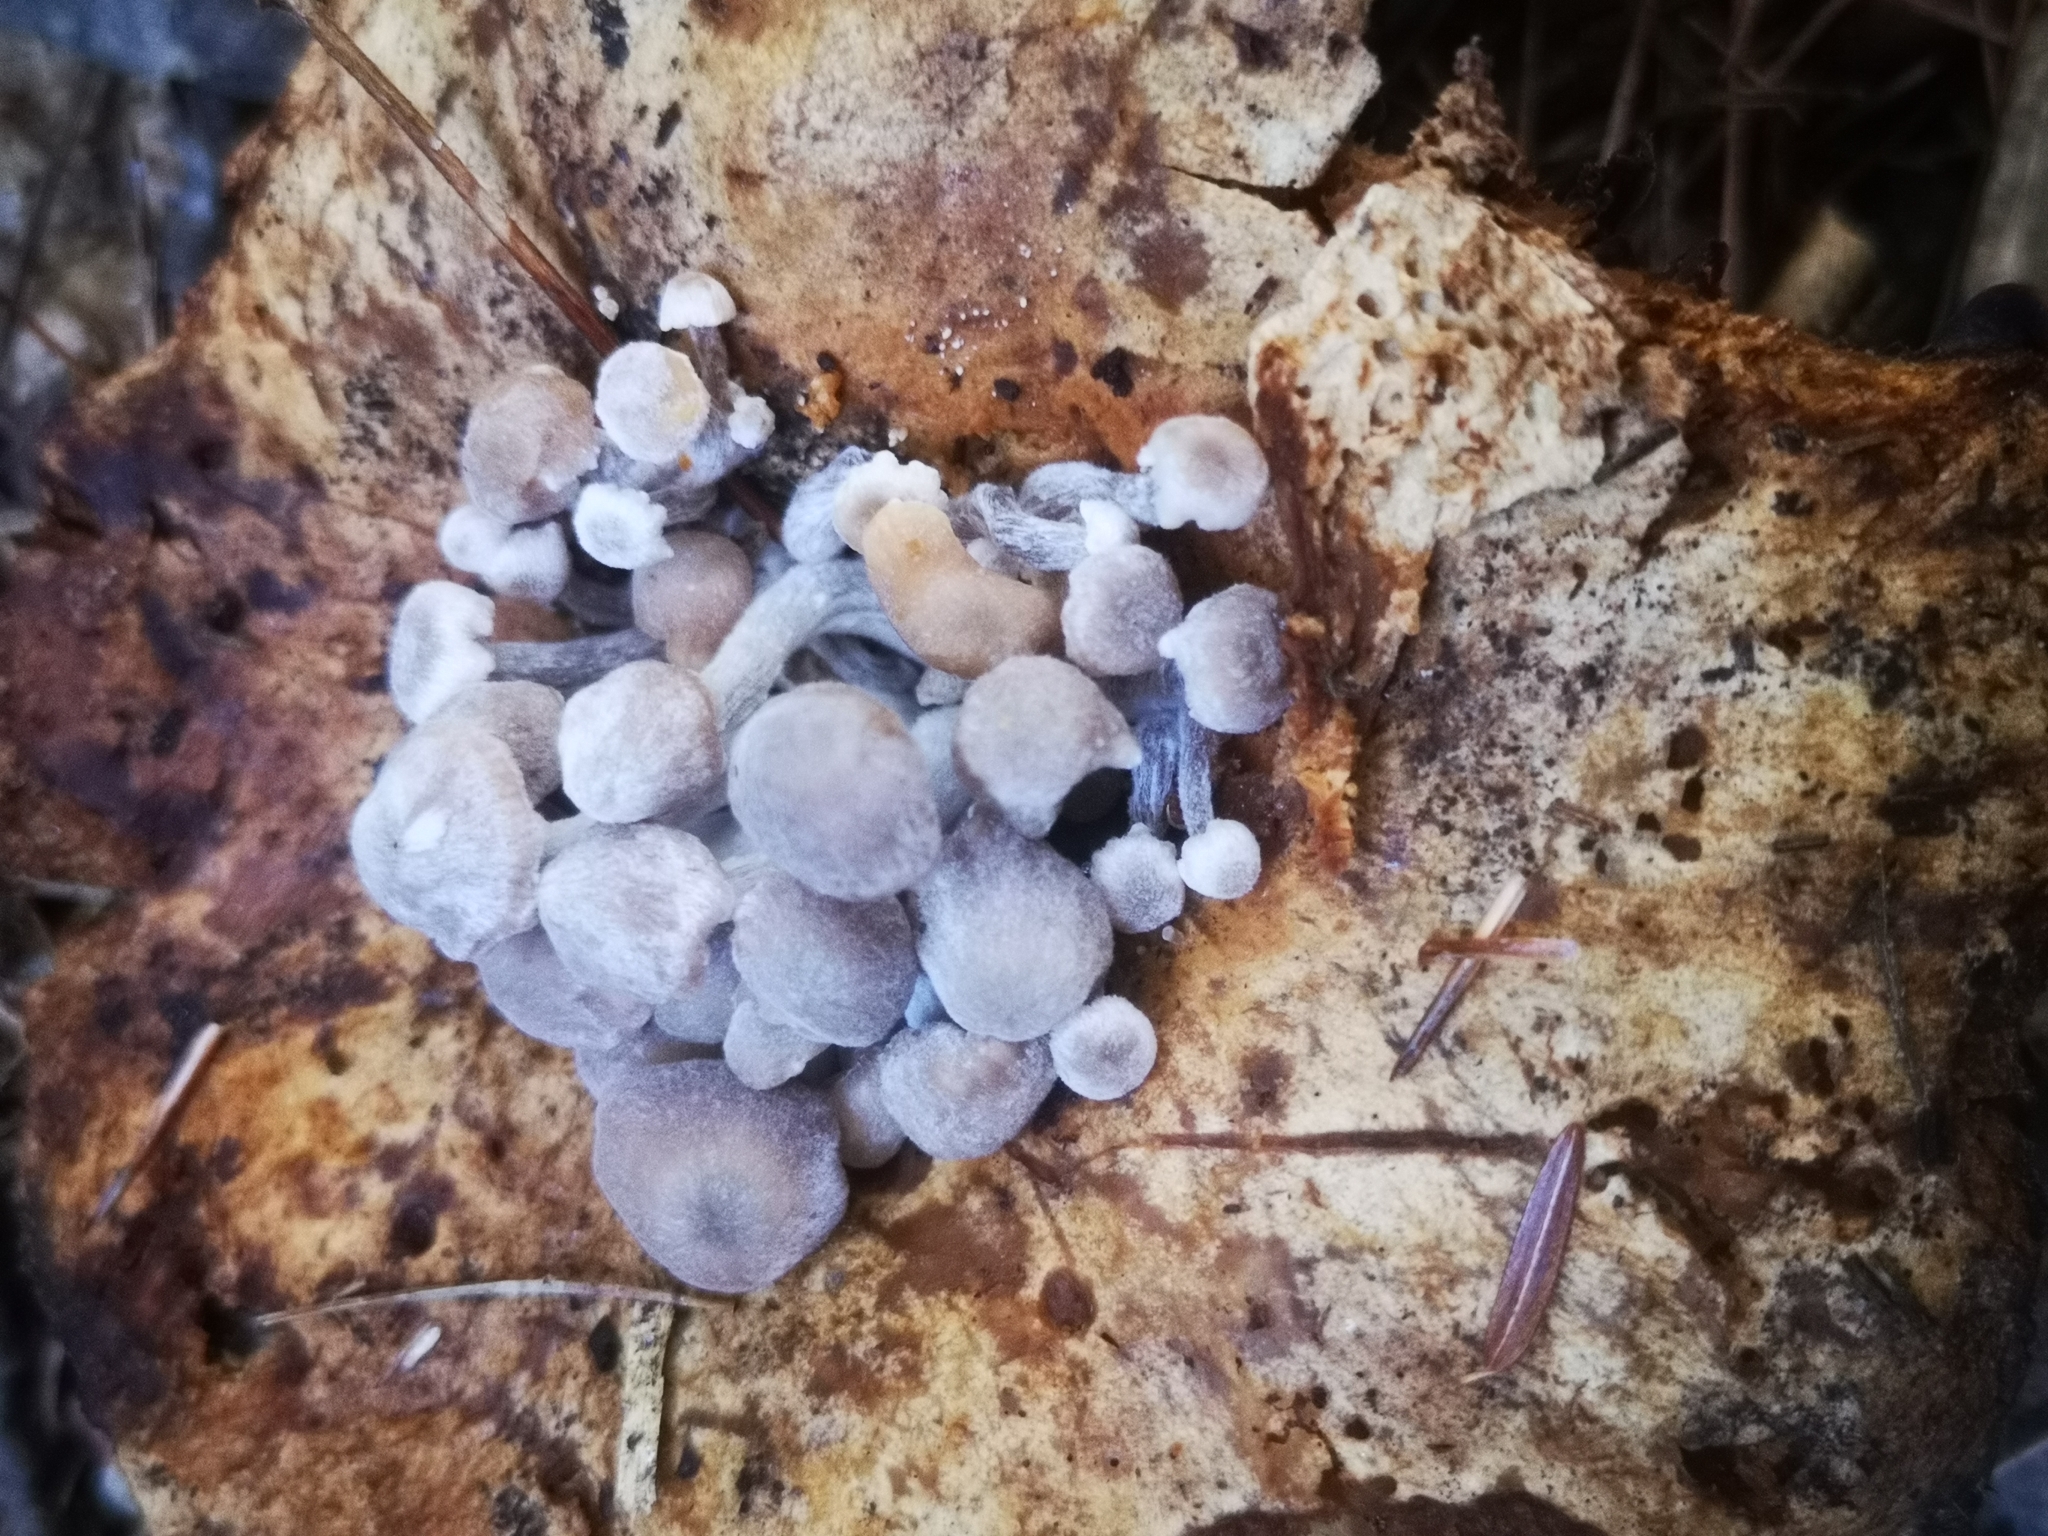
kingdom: Fungi
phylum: Basidiomycota
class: Agaricomycetes
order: Agaricales
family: Lyophyllaceae
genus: Asterophora
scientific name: Asterophora lycoperdoides
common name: Pick-a-back toadstool
